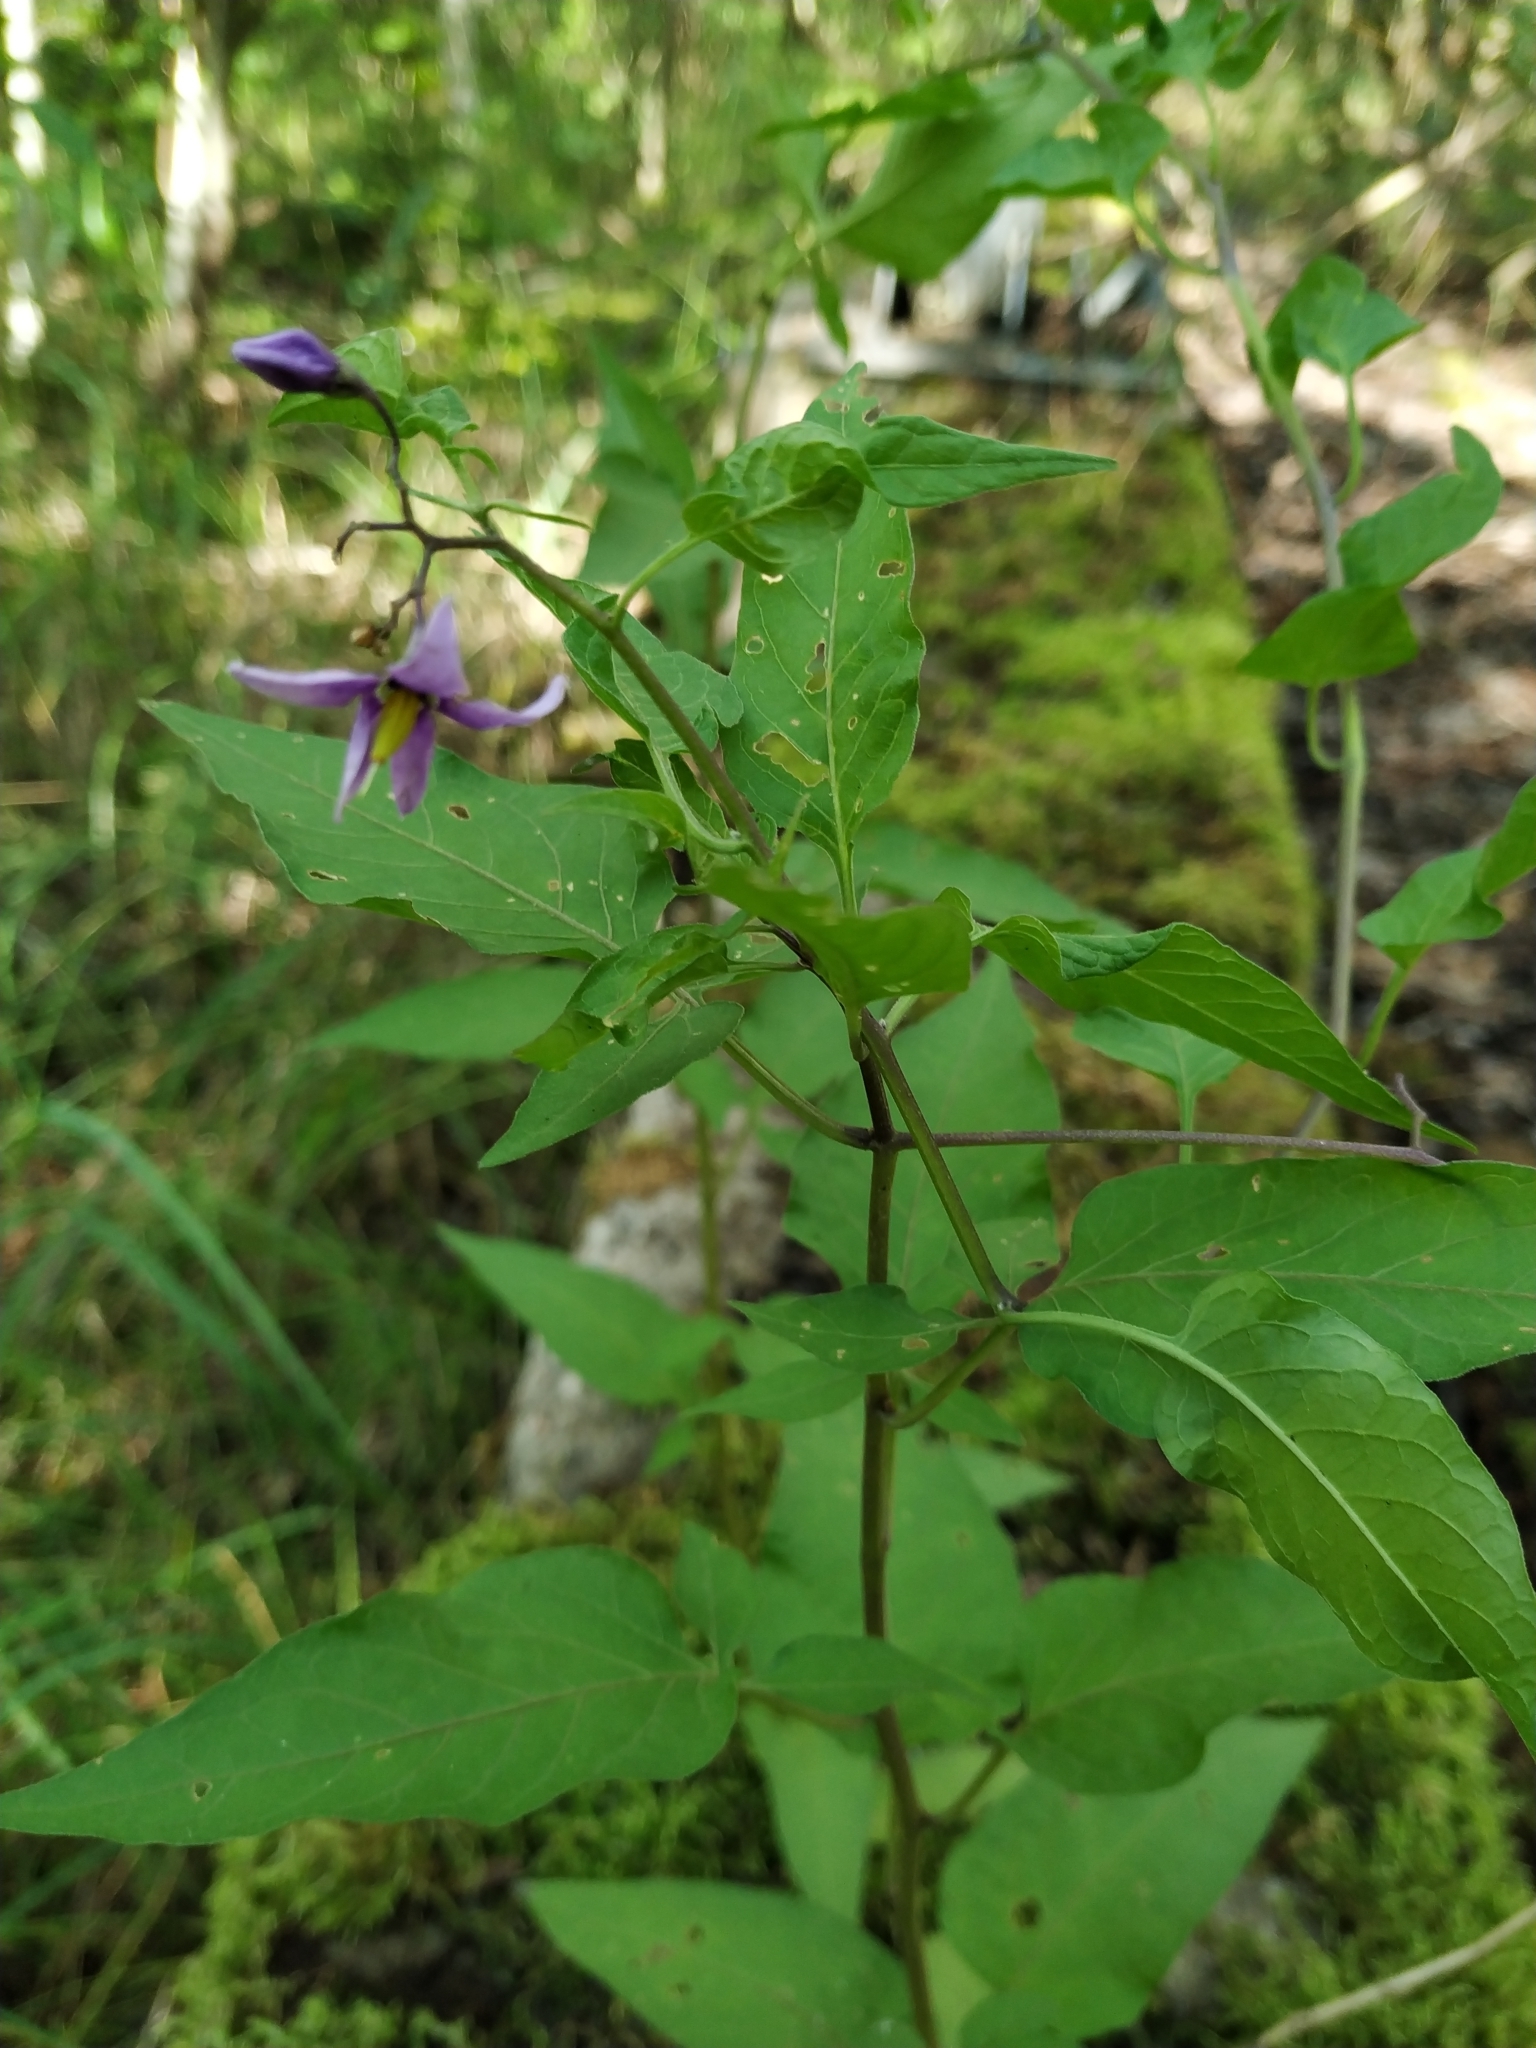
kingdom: Plantae
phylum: Tracheophyta
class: Magnoliopsida
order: Solanales
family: Solanaceae
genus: Solanum
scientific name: Solanum dulcamara
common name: Climbing nightshade
